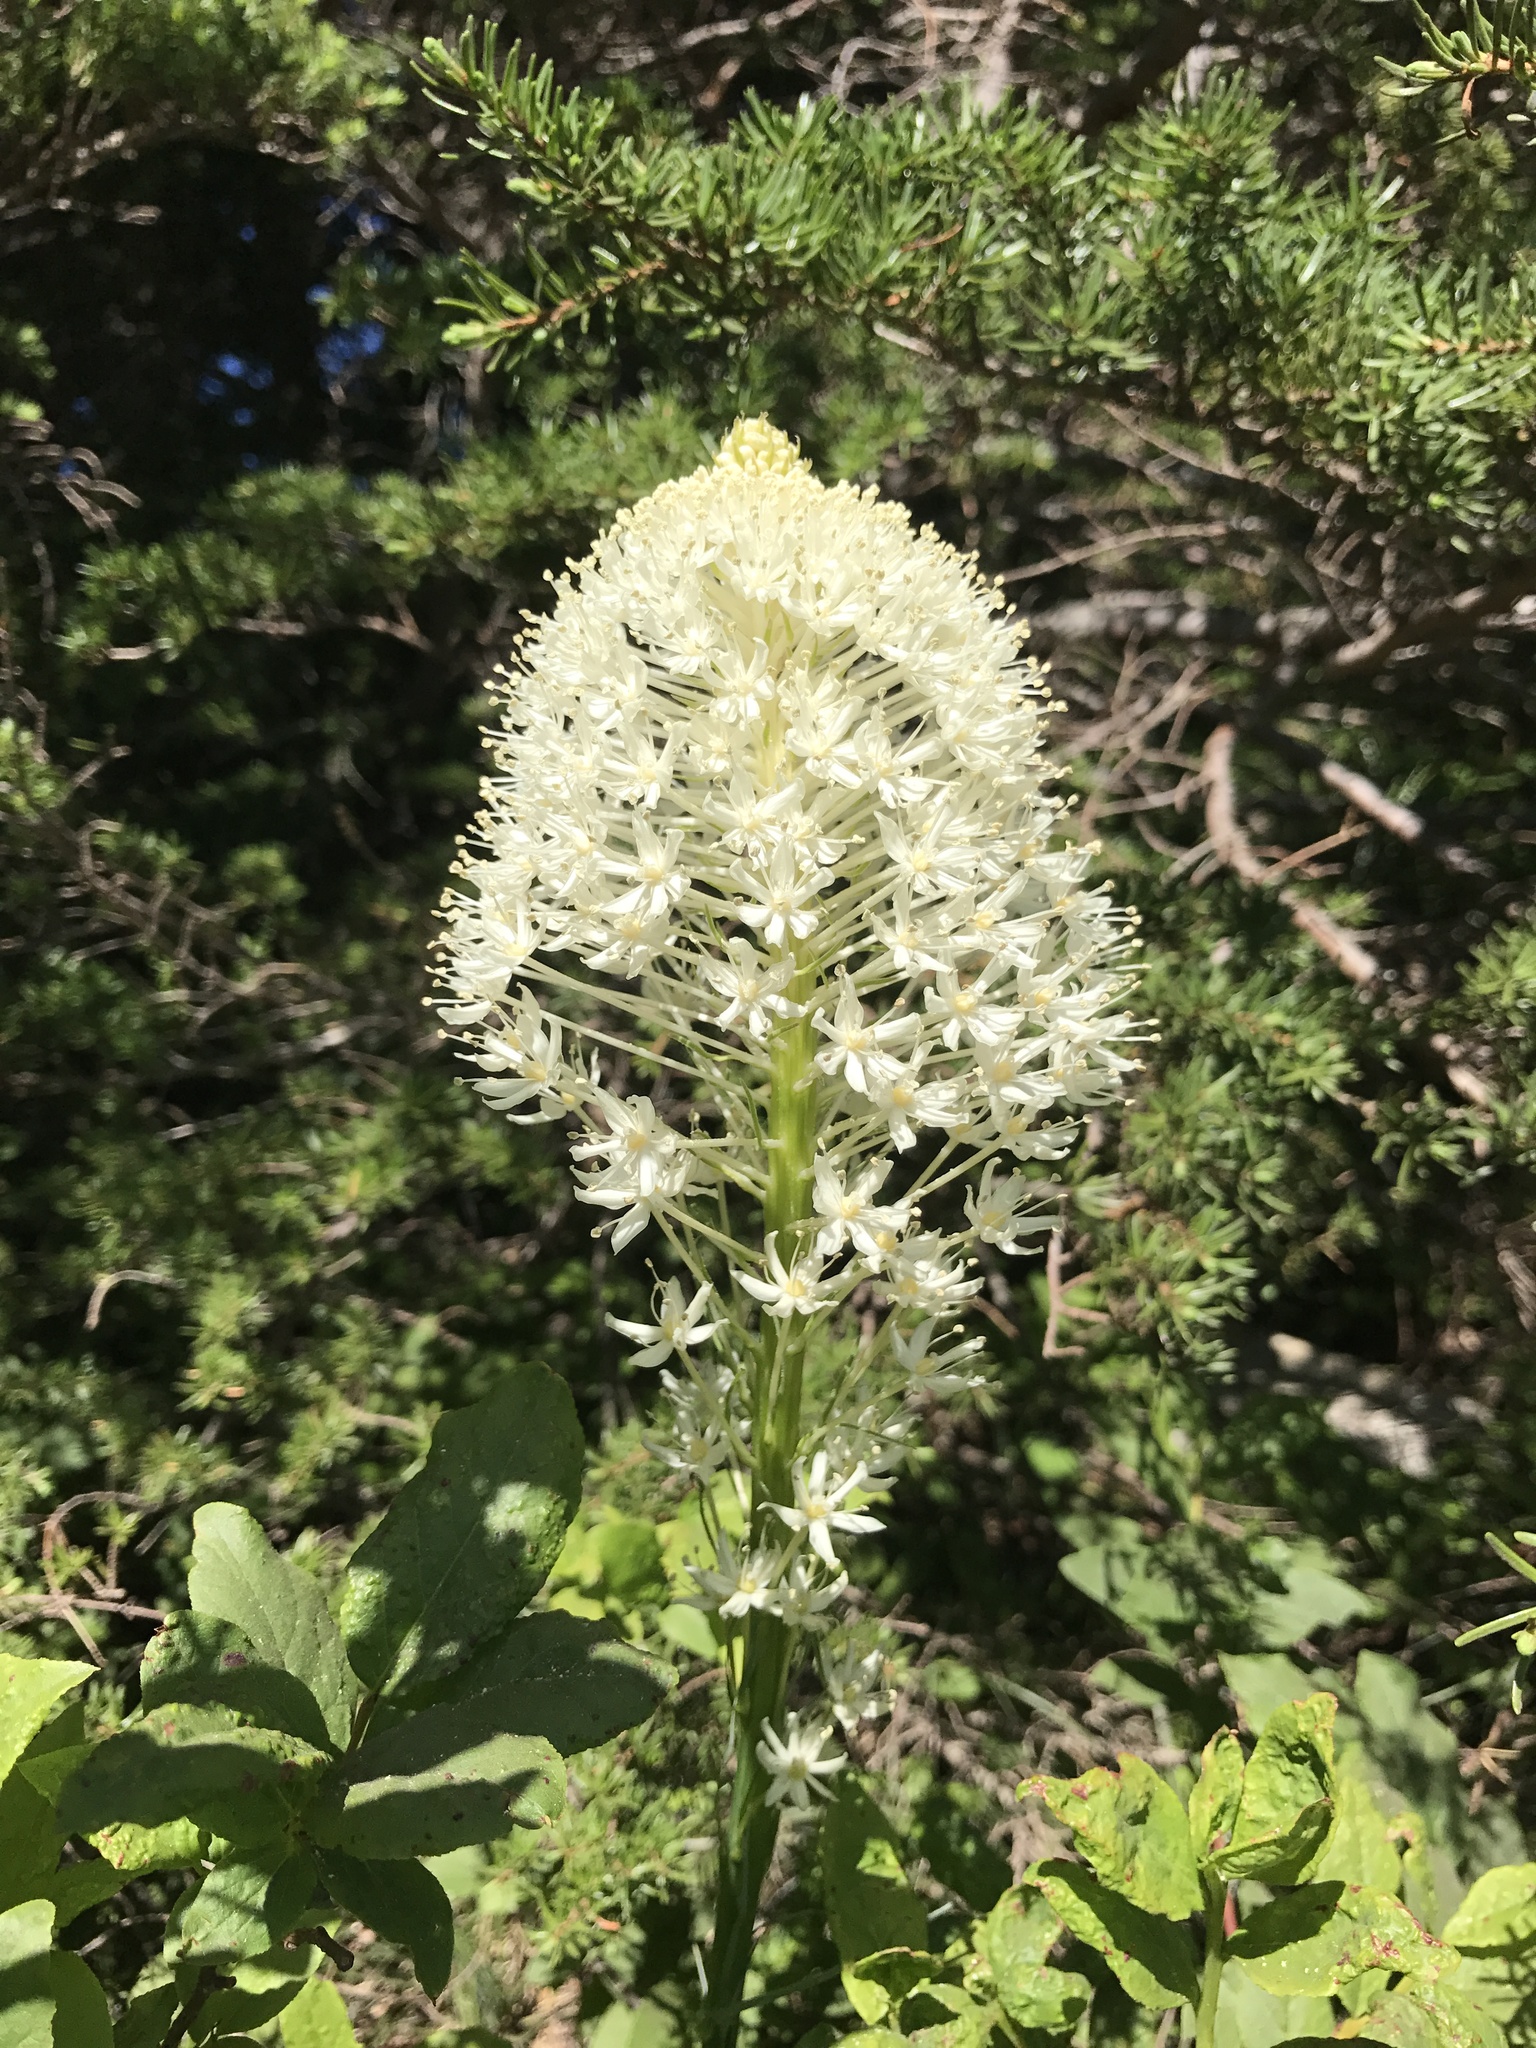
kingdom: Plantae
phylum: Tracheophyta
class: Liliopsida
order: Liliales
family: Melanthiaceae
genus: Xerophyllum
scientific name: Xerophyllum tenax
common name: Bear-grass
